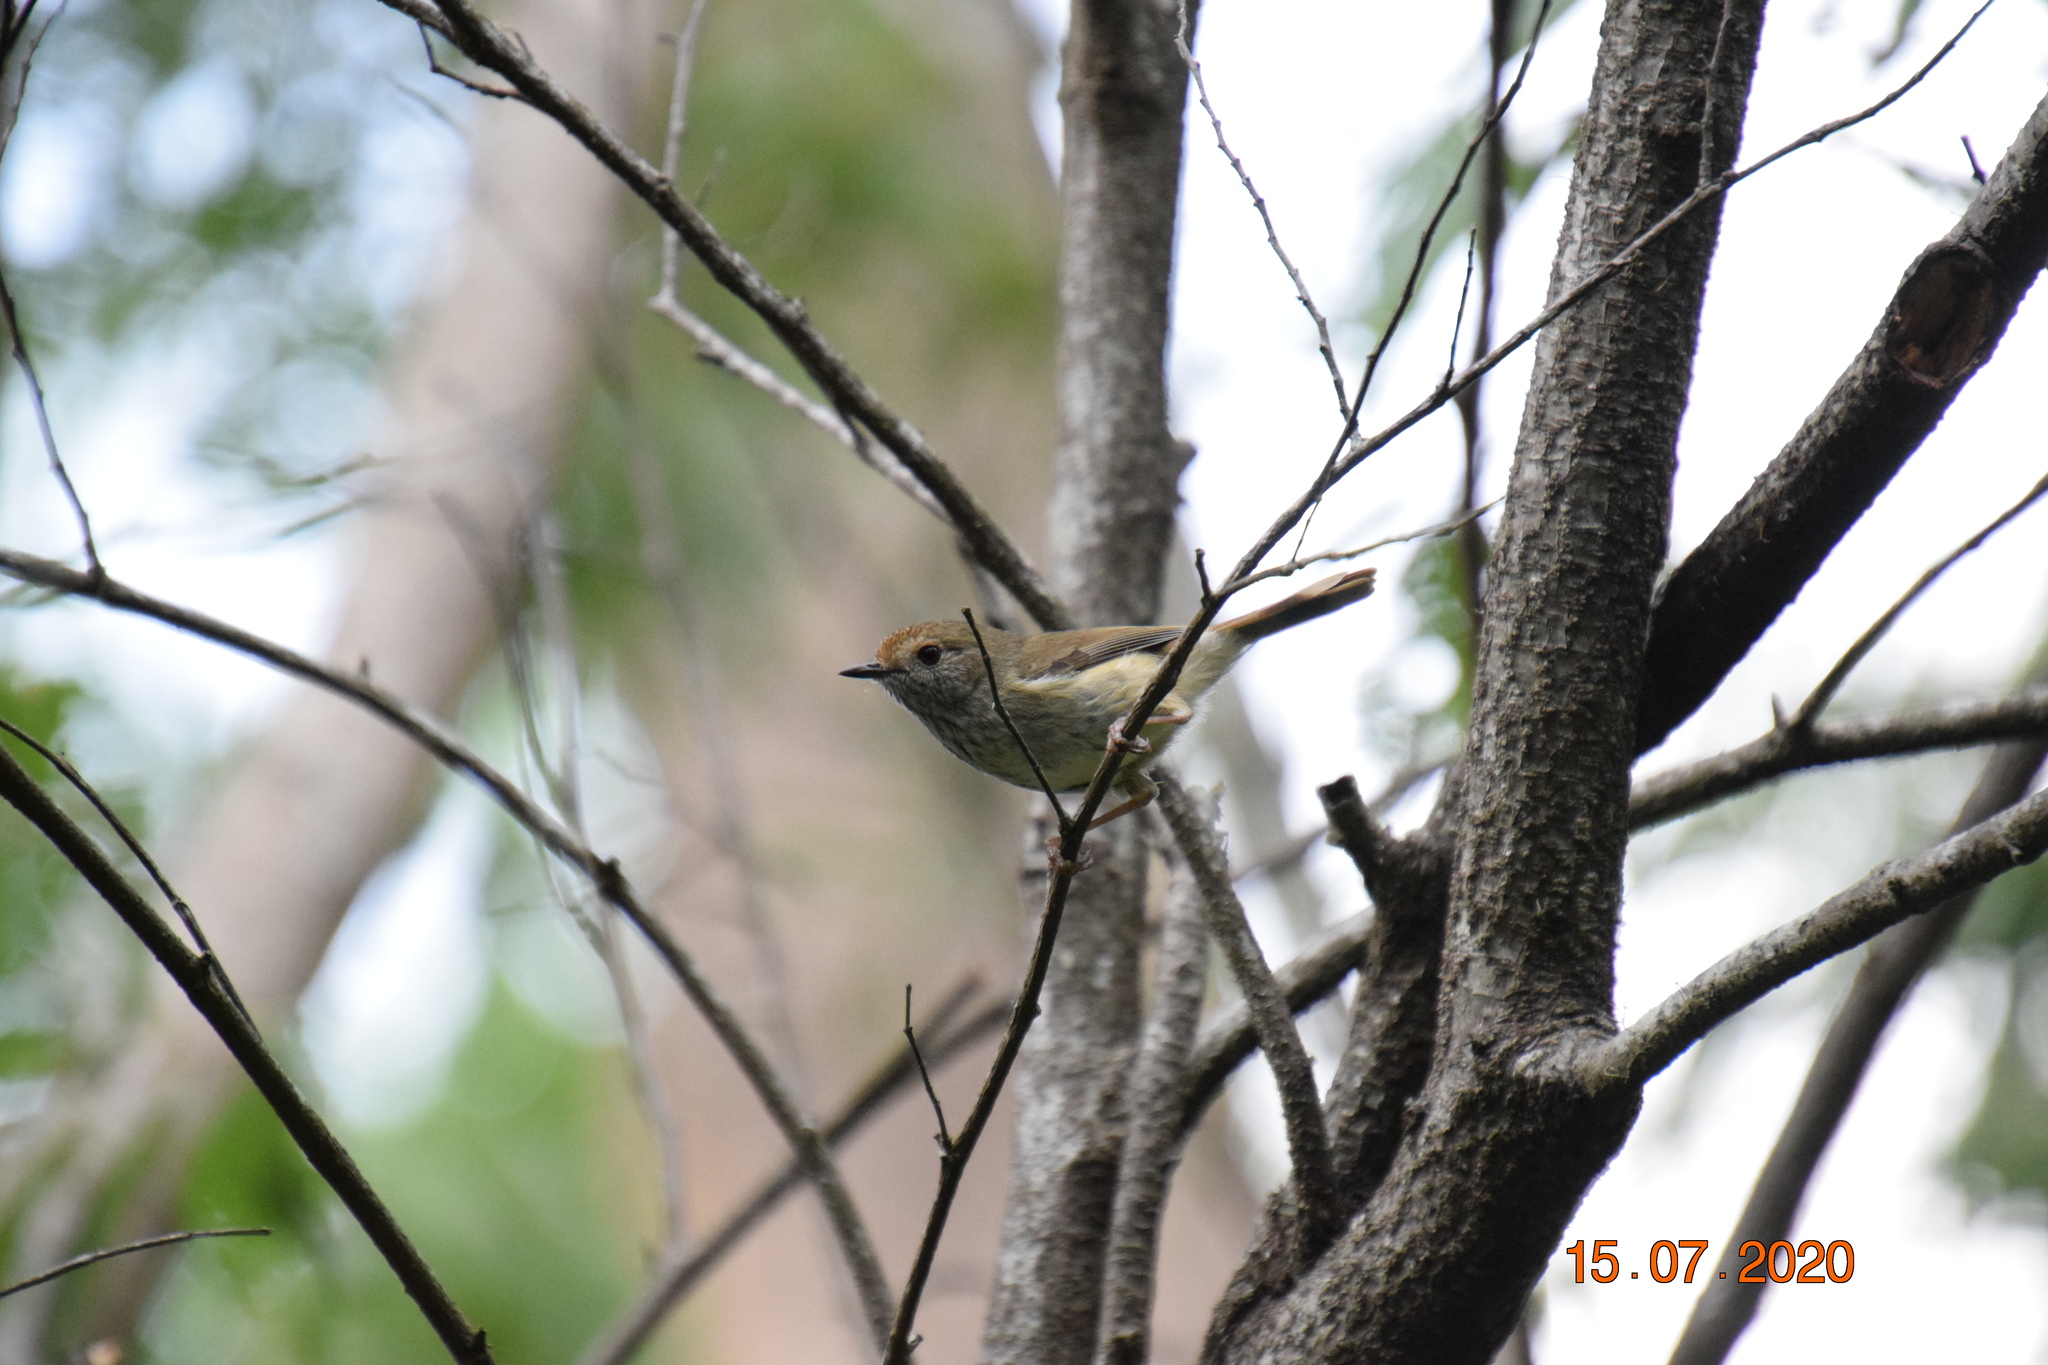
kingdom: Animalia
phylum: Chordata
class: Aves
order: Passeriformes
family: Acanthizidae
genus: Acanthiza
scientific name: Acanthiza pusilla
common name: Brown thornbill
